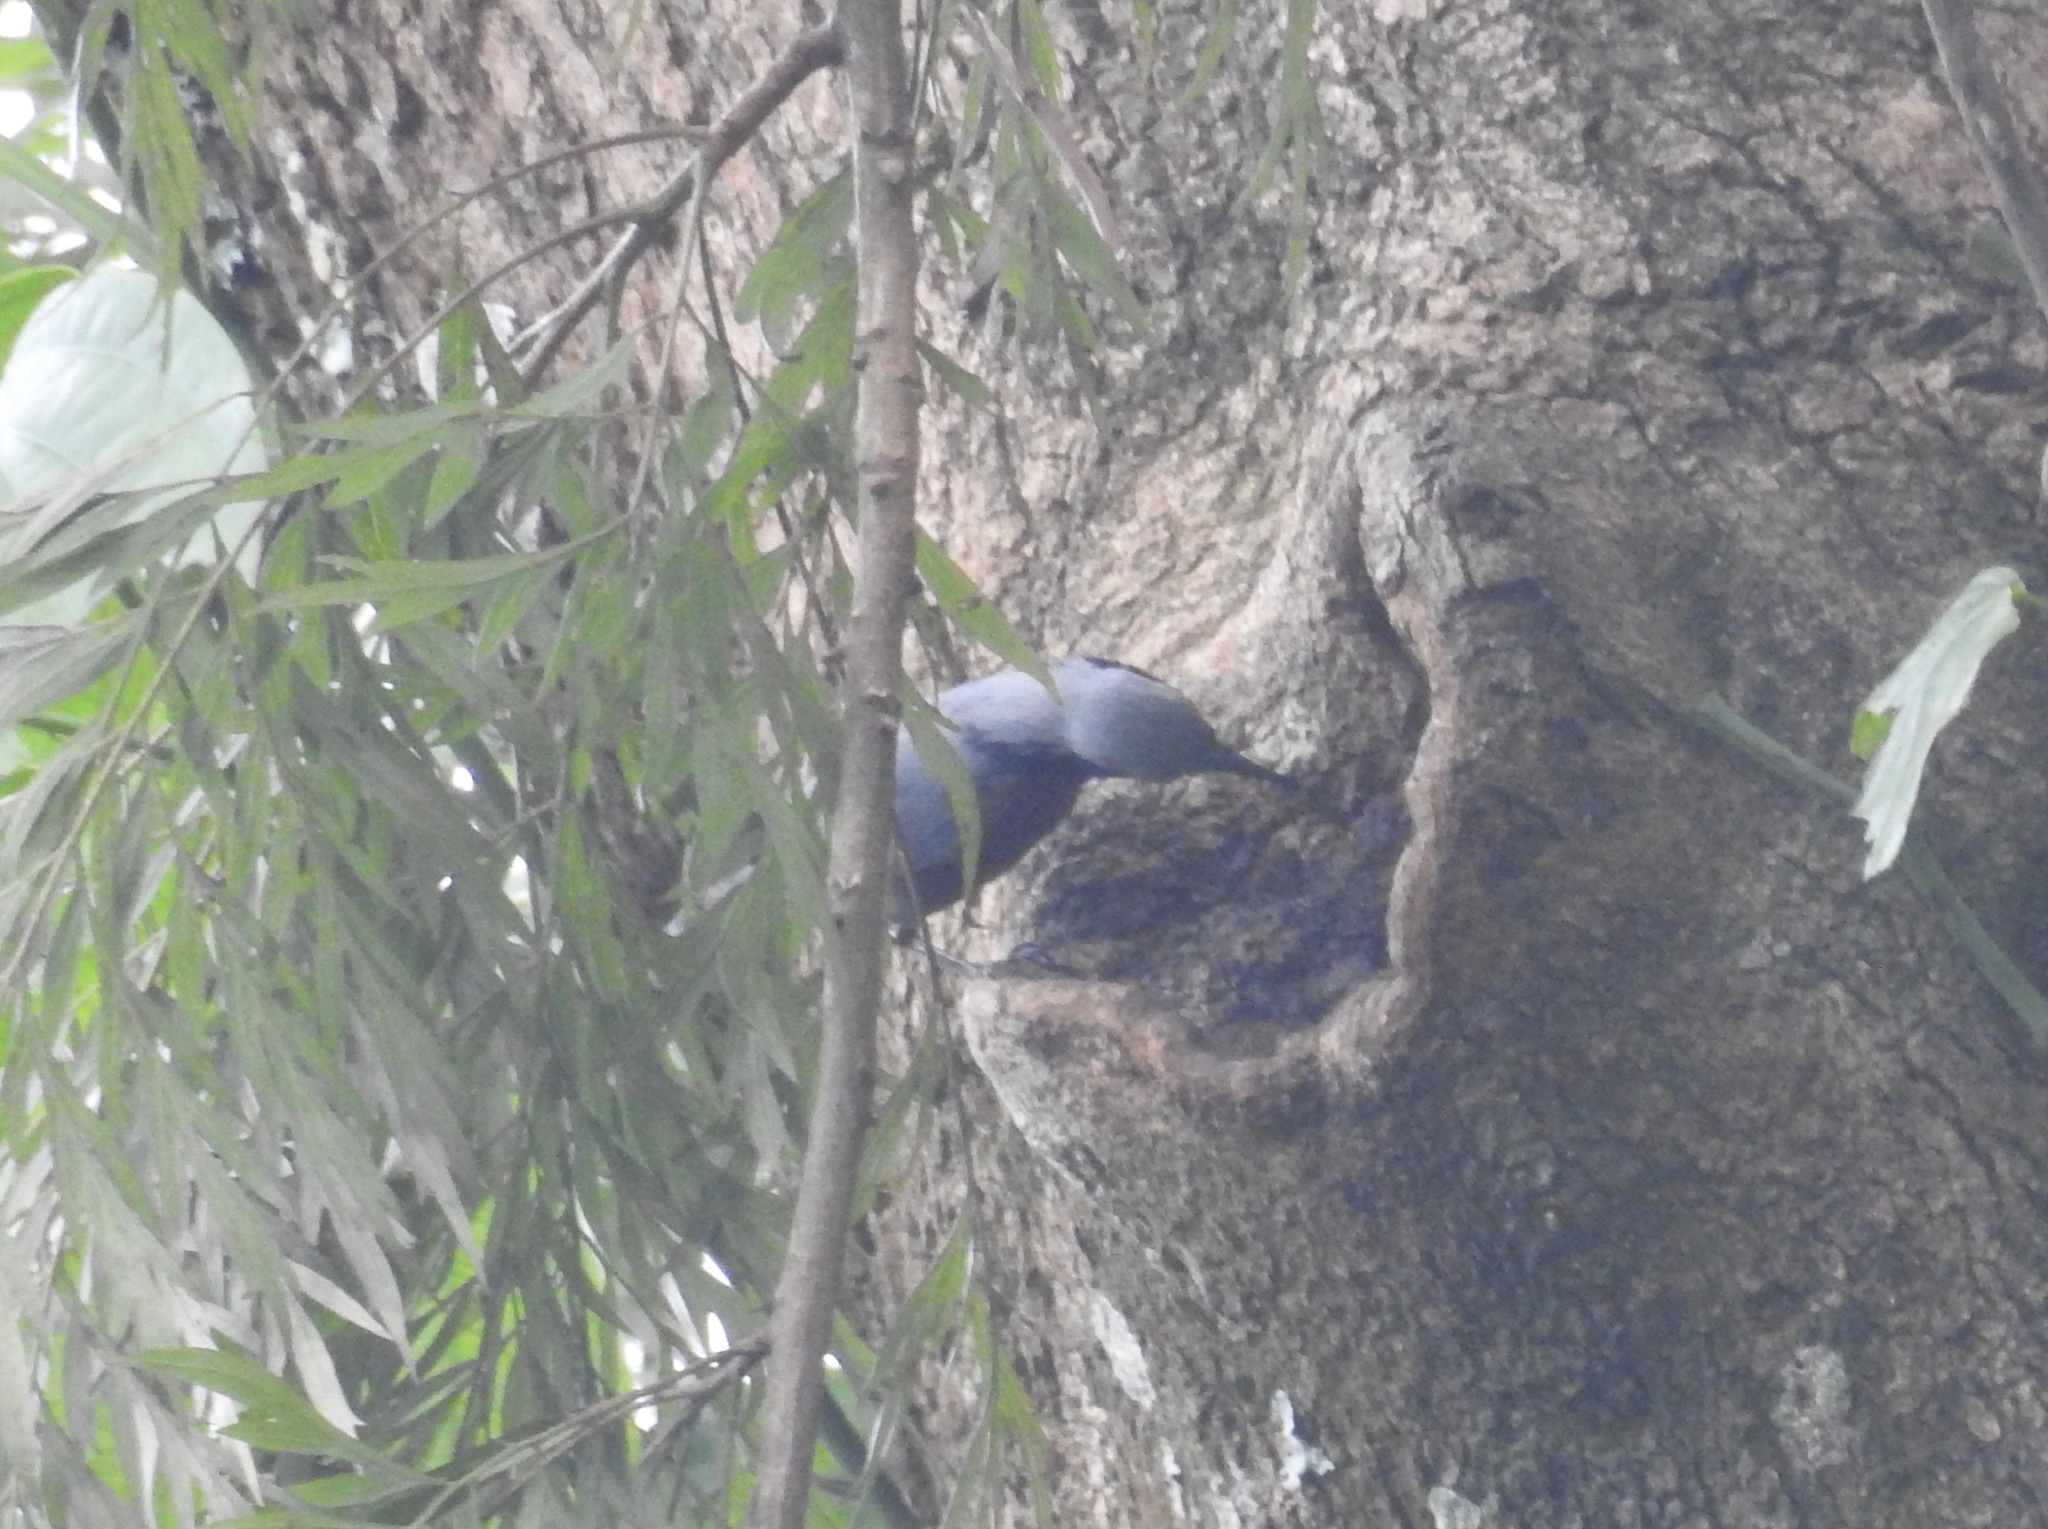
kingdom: Animalia
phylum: Chordata
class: Aves
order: Passeriformes
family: Sittidae
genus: Sitta
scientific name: Sitta castanea
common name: Indian nuthatch
